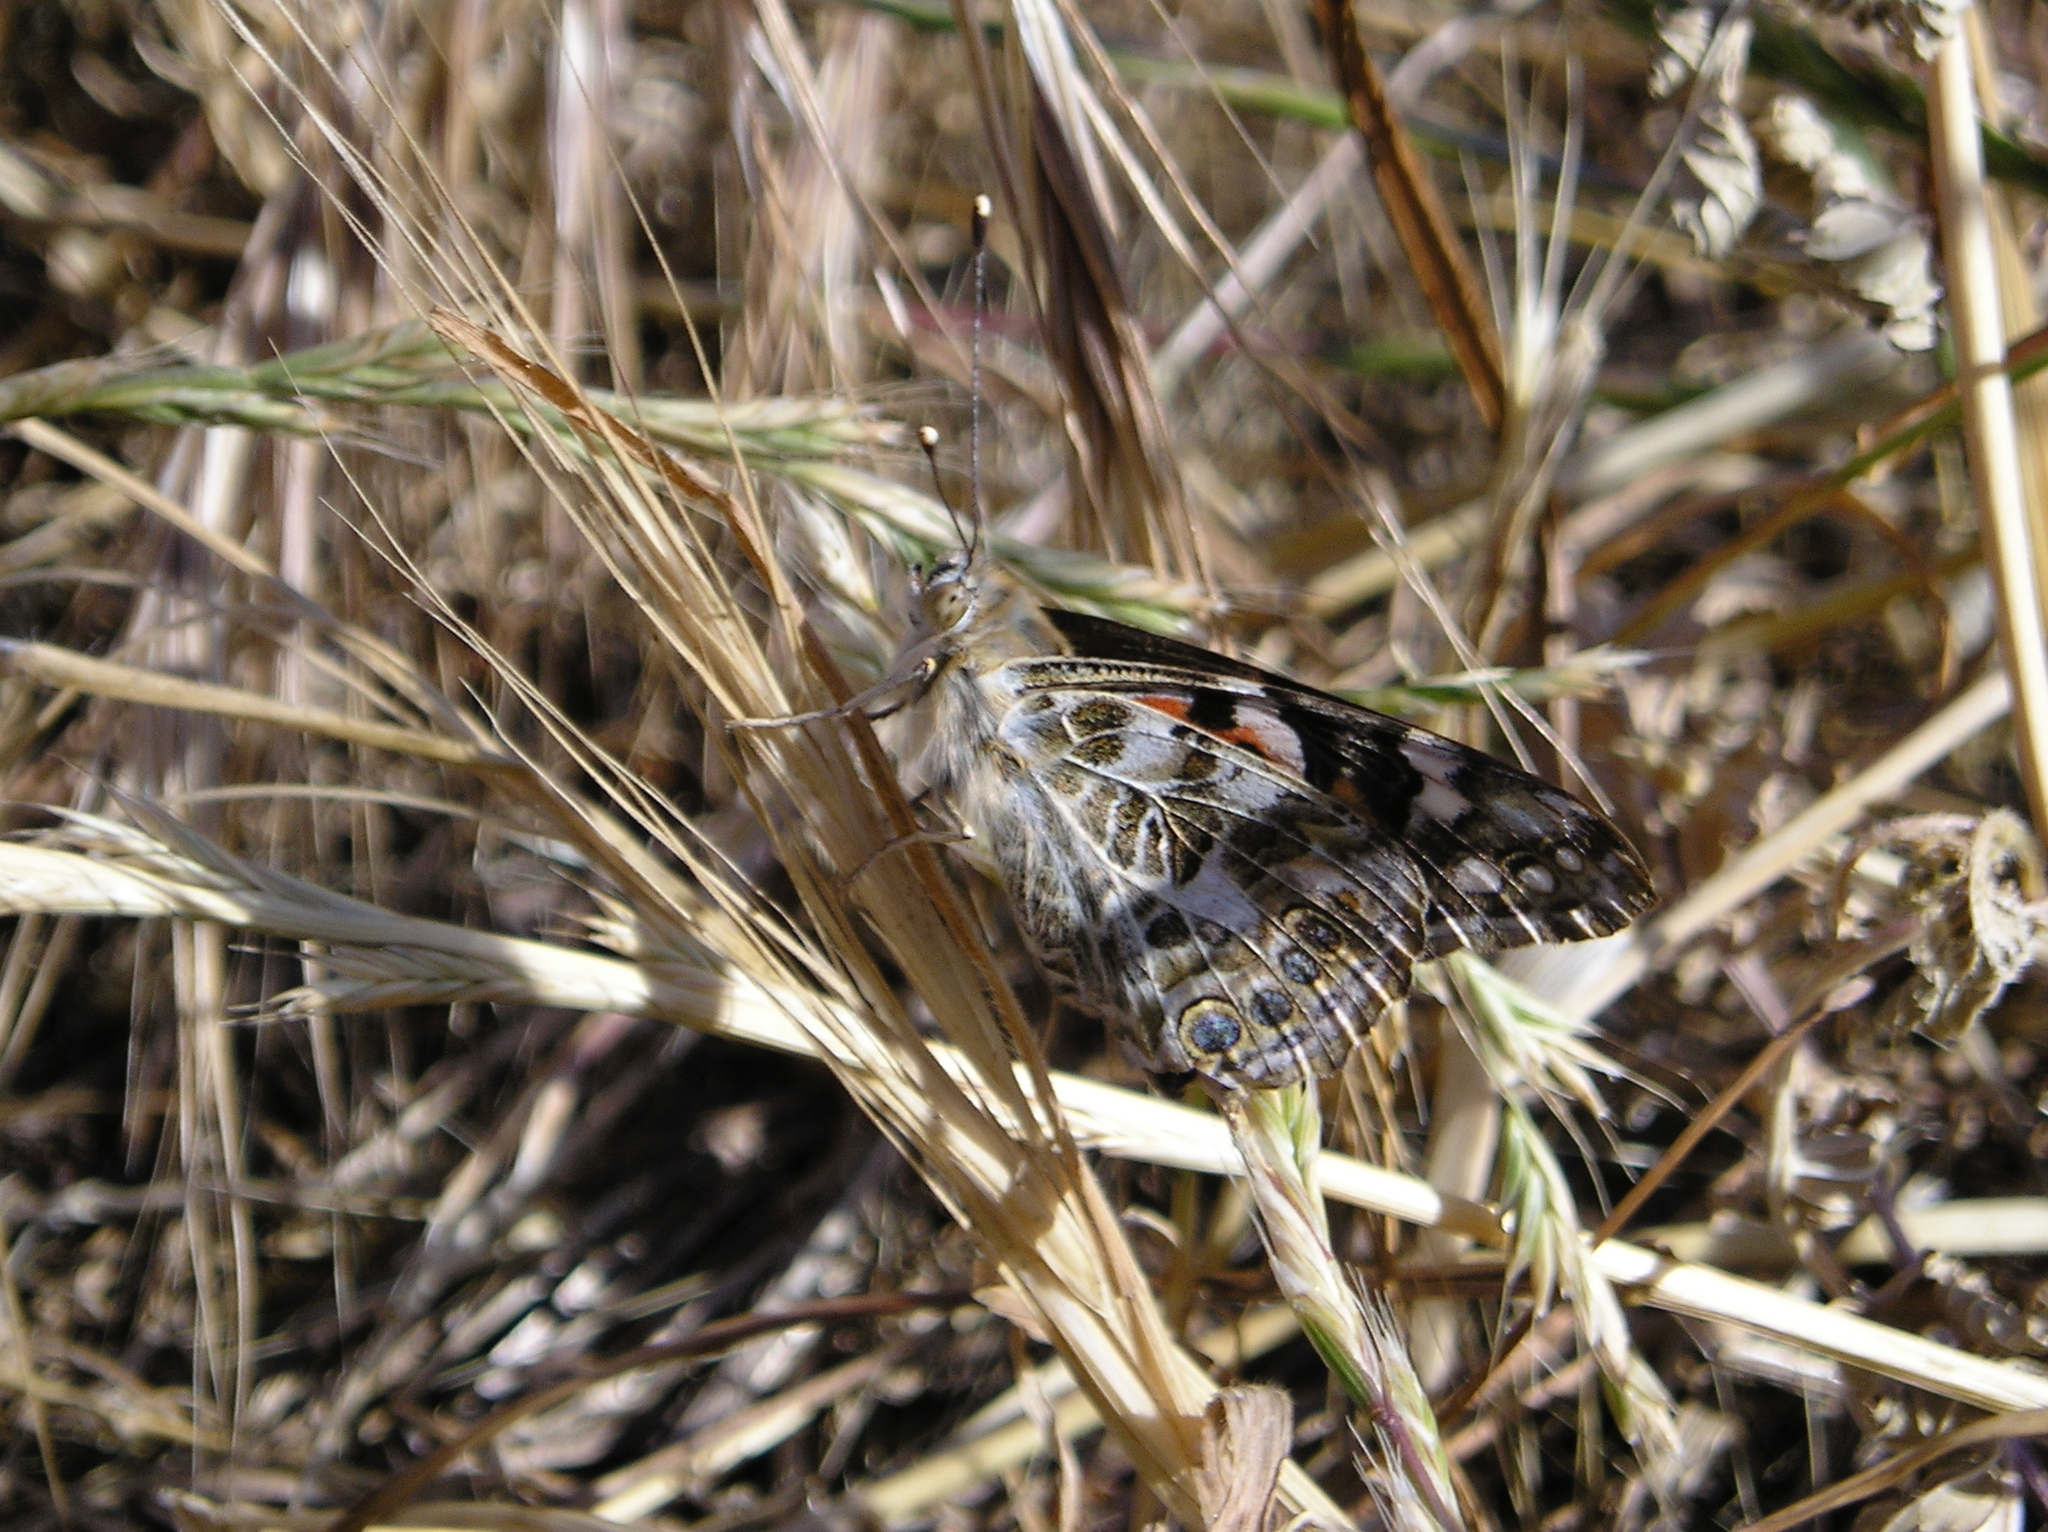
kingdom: Animalia
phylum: Arthropoda
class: Insecta
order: Lepidoptera
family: Nymphalidae
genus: Vanessa
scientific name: Vanessa cardui
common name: Painted lady
